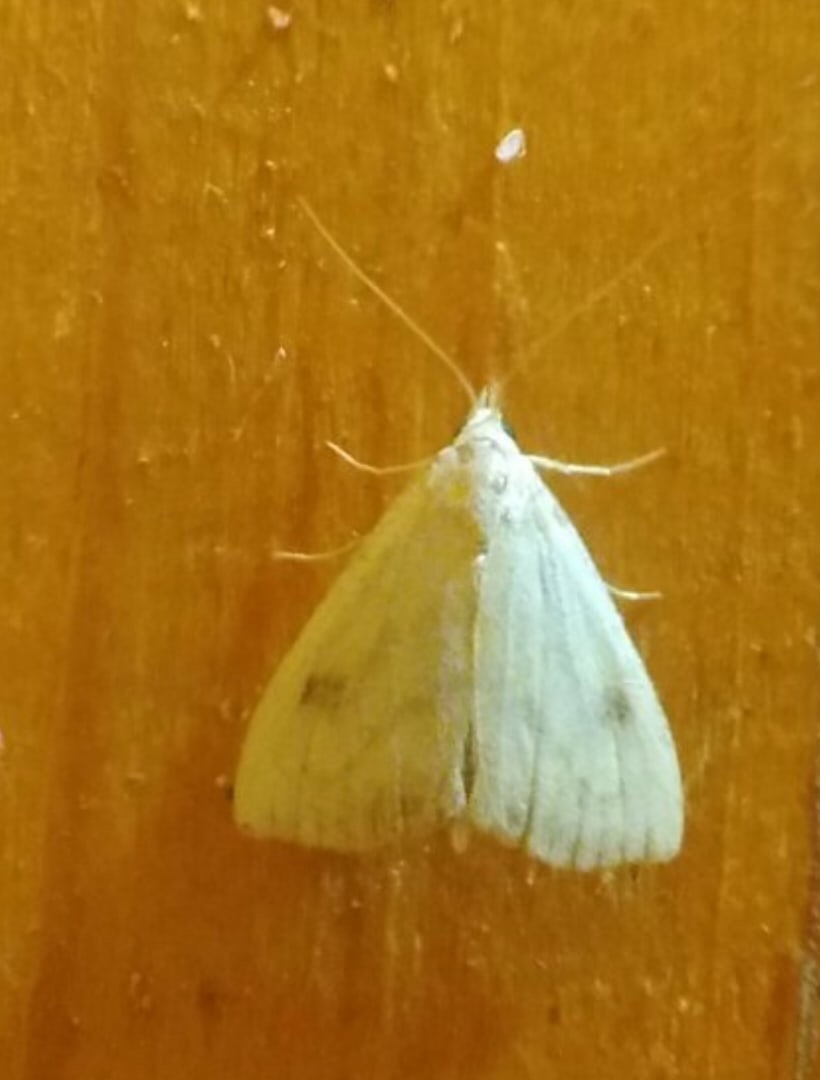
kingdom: Animalia
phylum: Arthropoda
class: Insecta
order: Lepidoptera
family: Erebidae
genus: Rivula
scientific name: Rivula sericealis
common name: Straw dot
